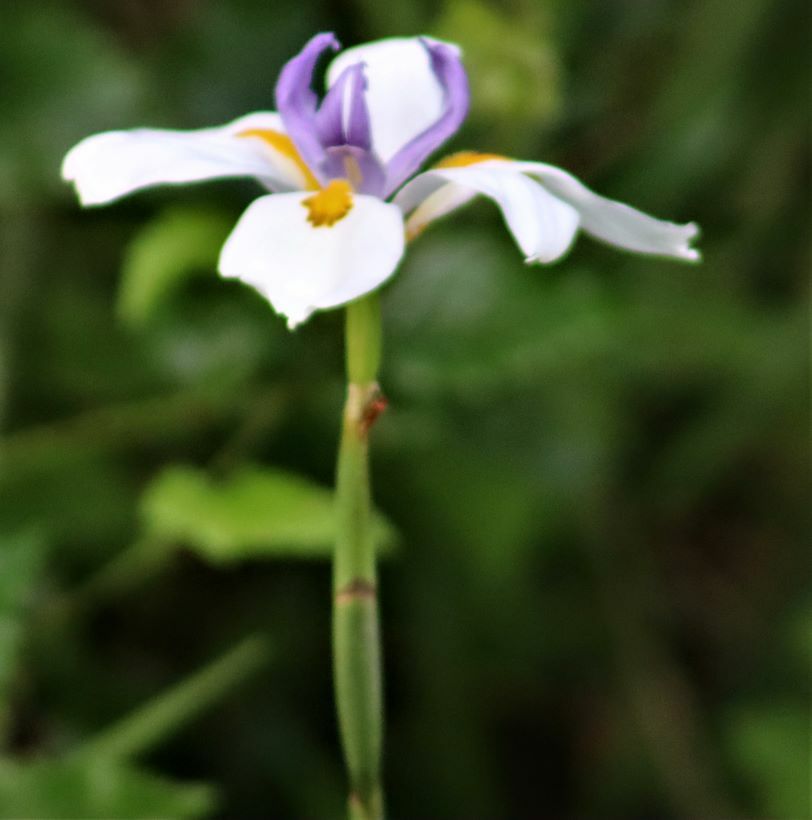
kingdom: Plantae
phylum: Tracheophyta
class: Liliopsida
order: Asparagales
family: Iridaceae
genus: Dietes
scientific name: Dietes grandiflora
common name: Wild iris
